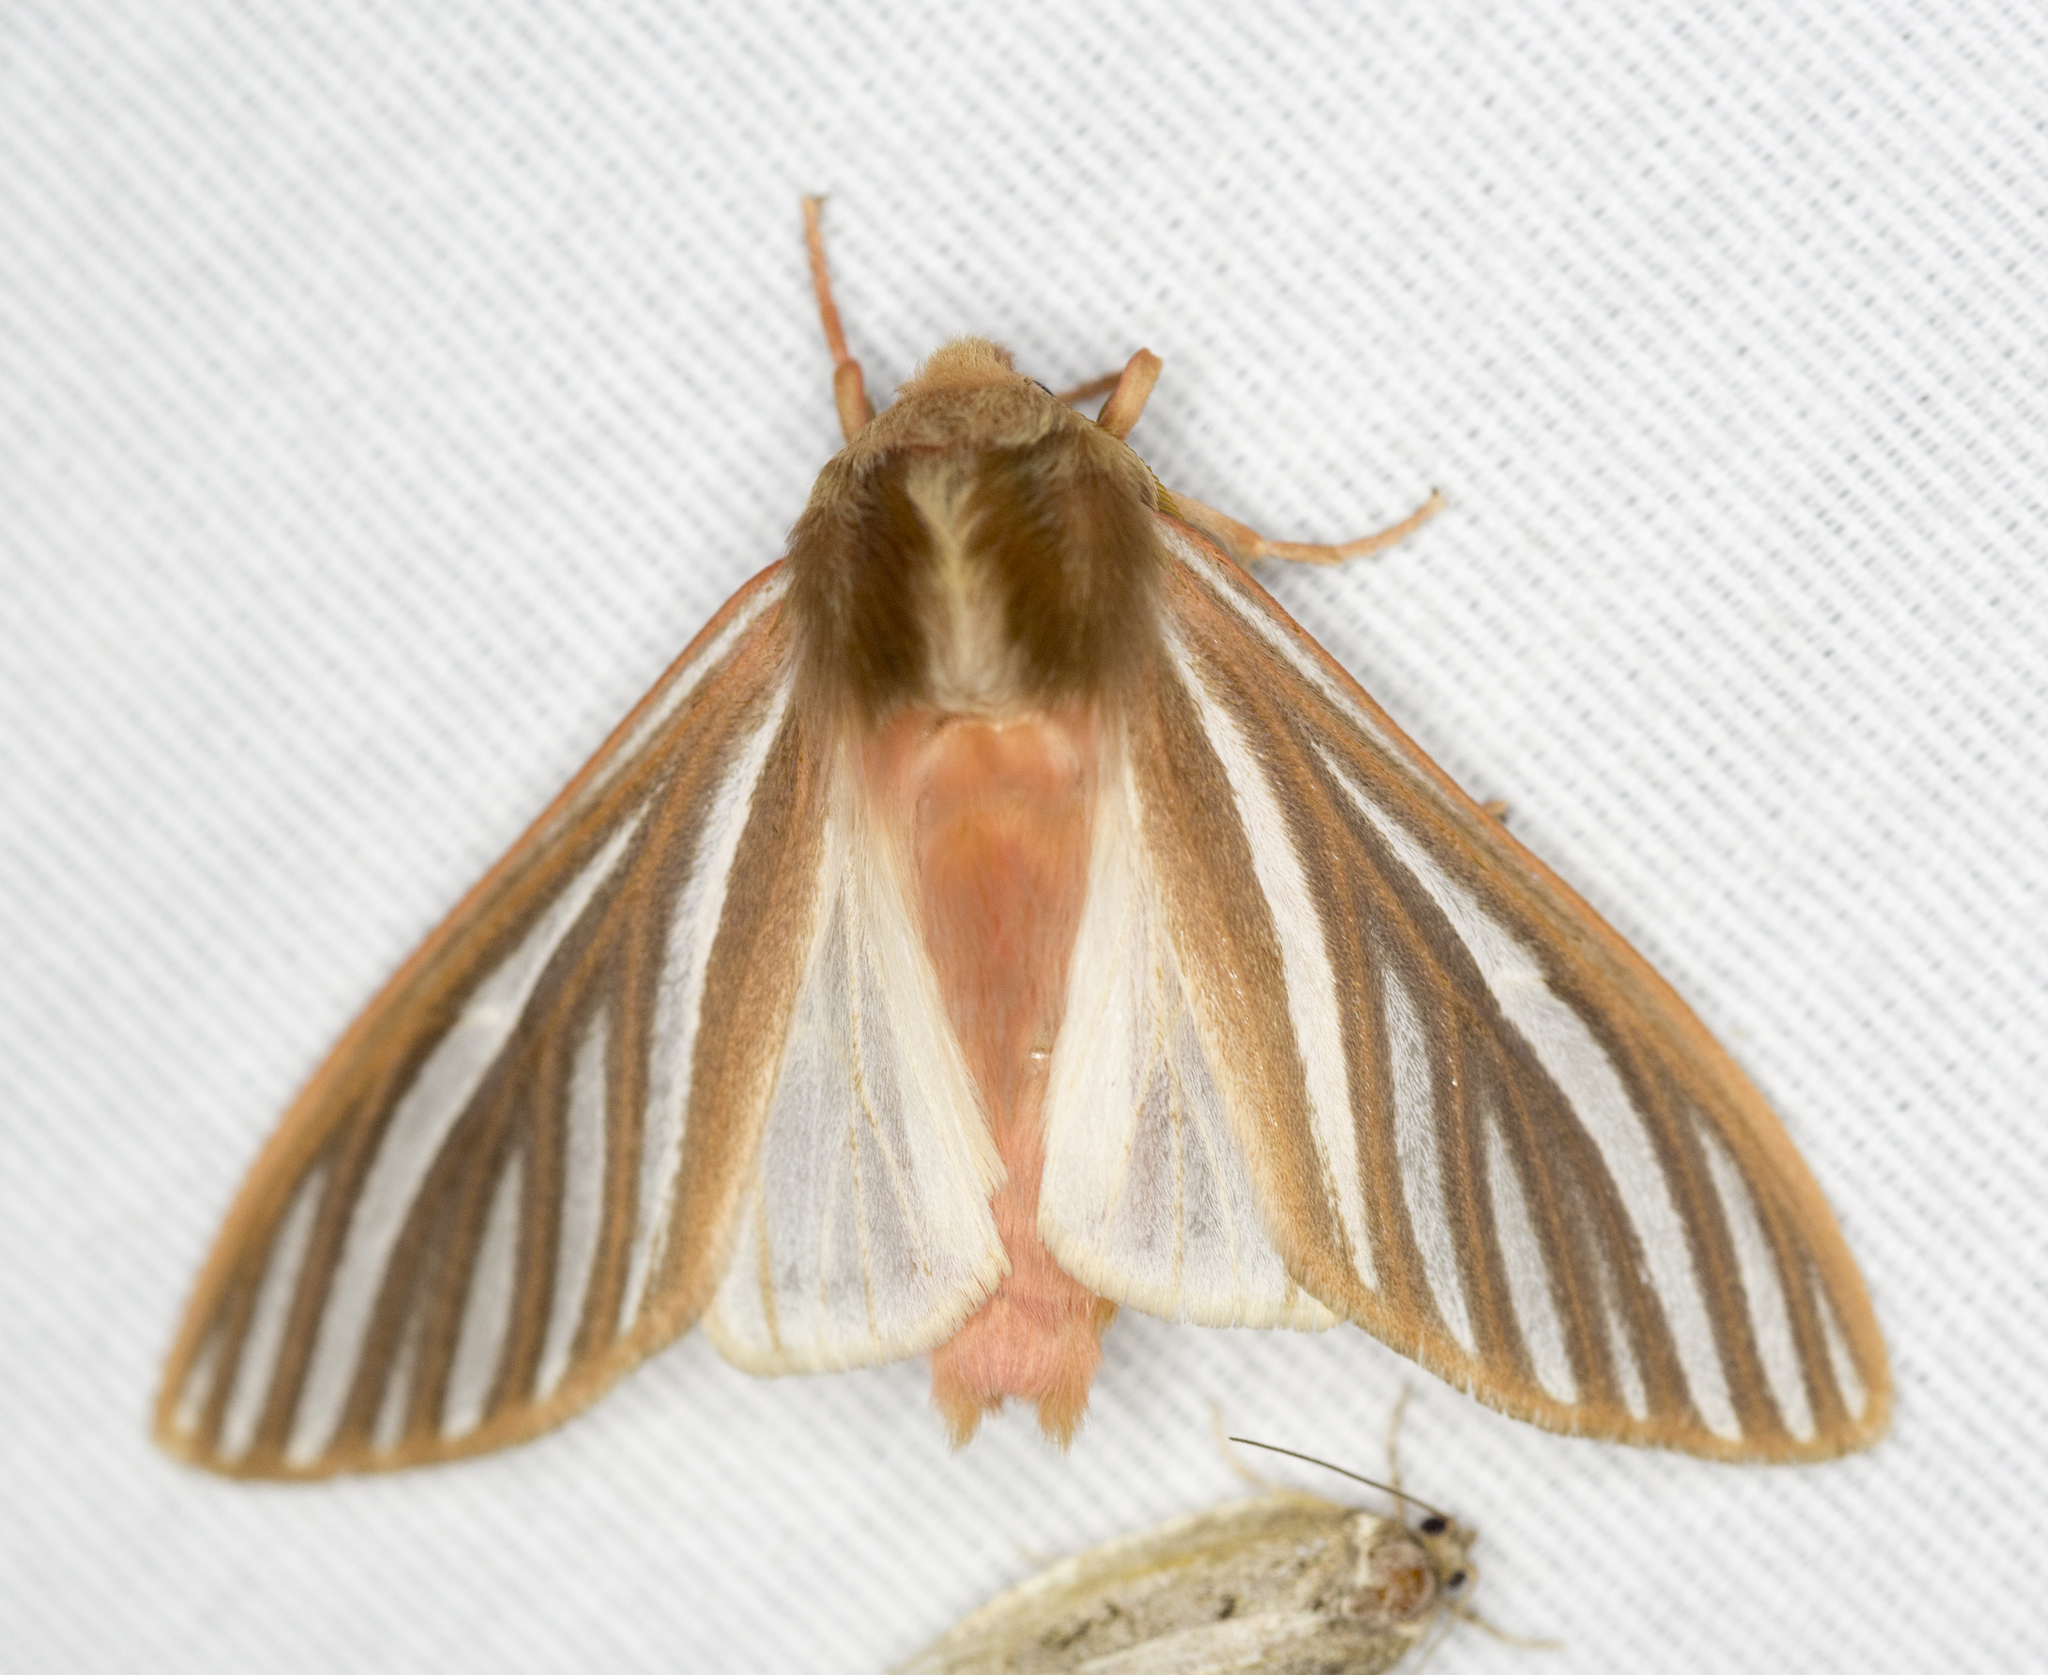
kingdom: Animalia
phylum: Arthropoda
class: Insecta
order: Lepidoptera
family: Erebidae
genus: Hemihyalea
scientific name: Hemihyalea ambigua
